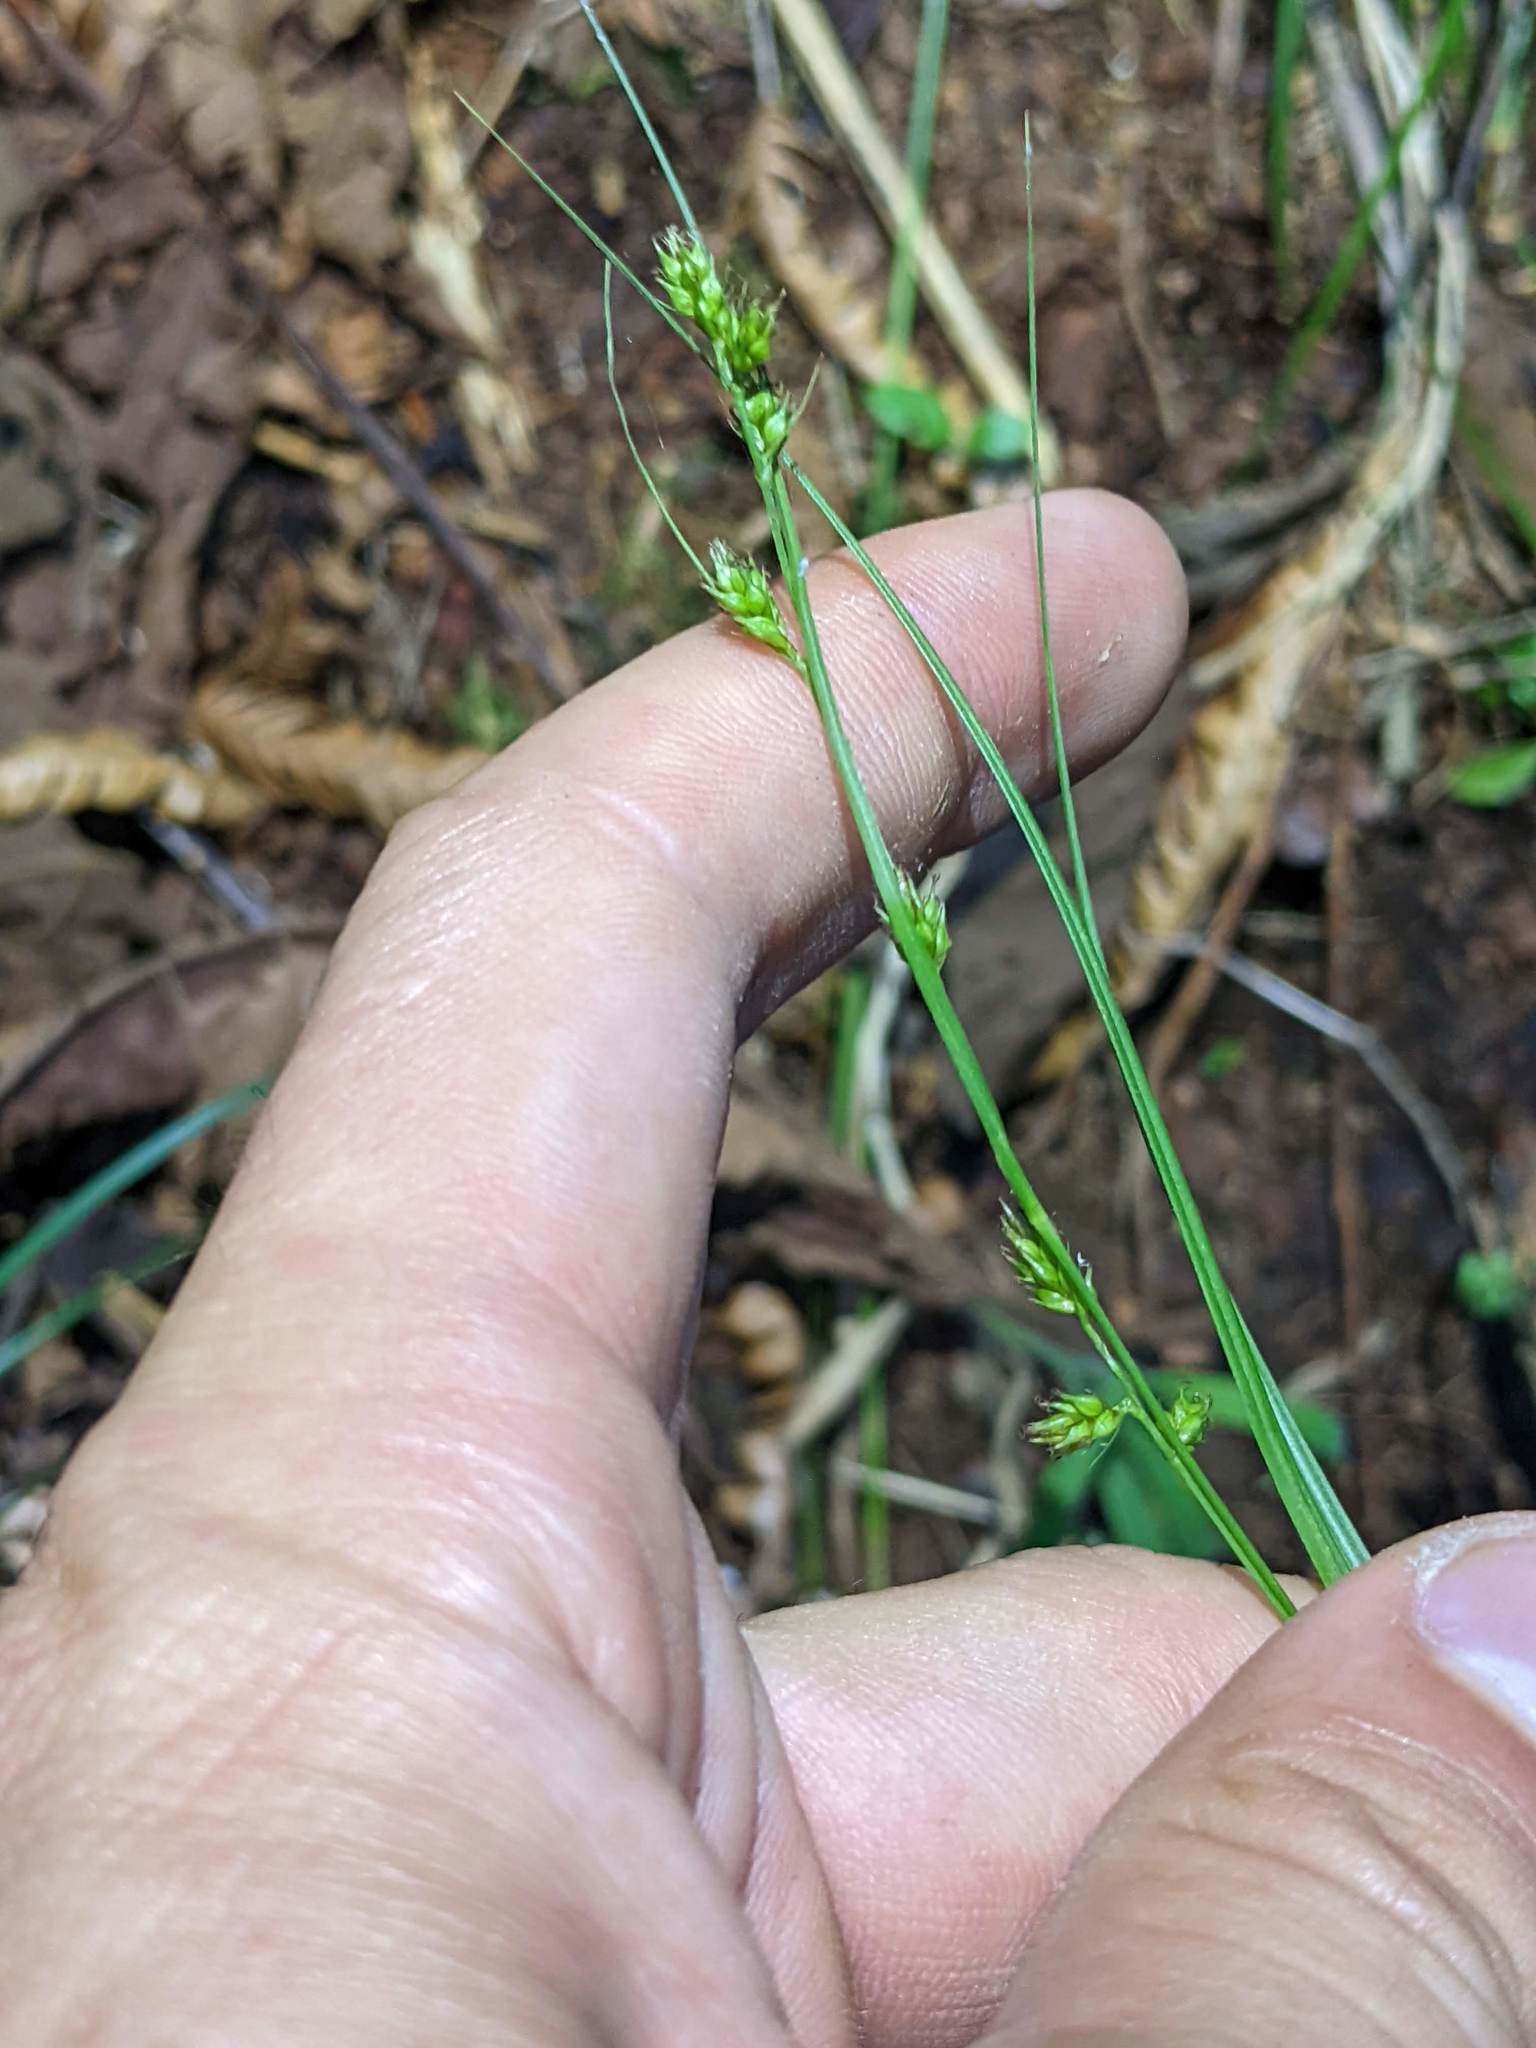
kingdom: Plantae
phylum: Tracheophyta
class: Liliopsida
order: Poales
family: Cyperaceae
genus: Carex
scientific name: Carex polystachya
